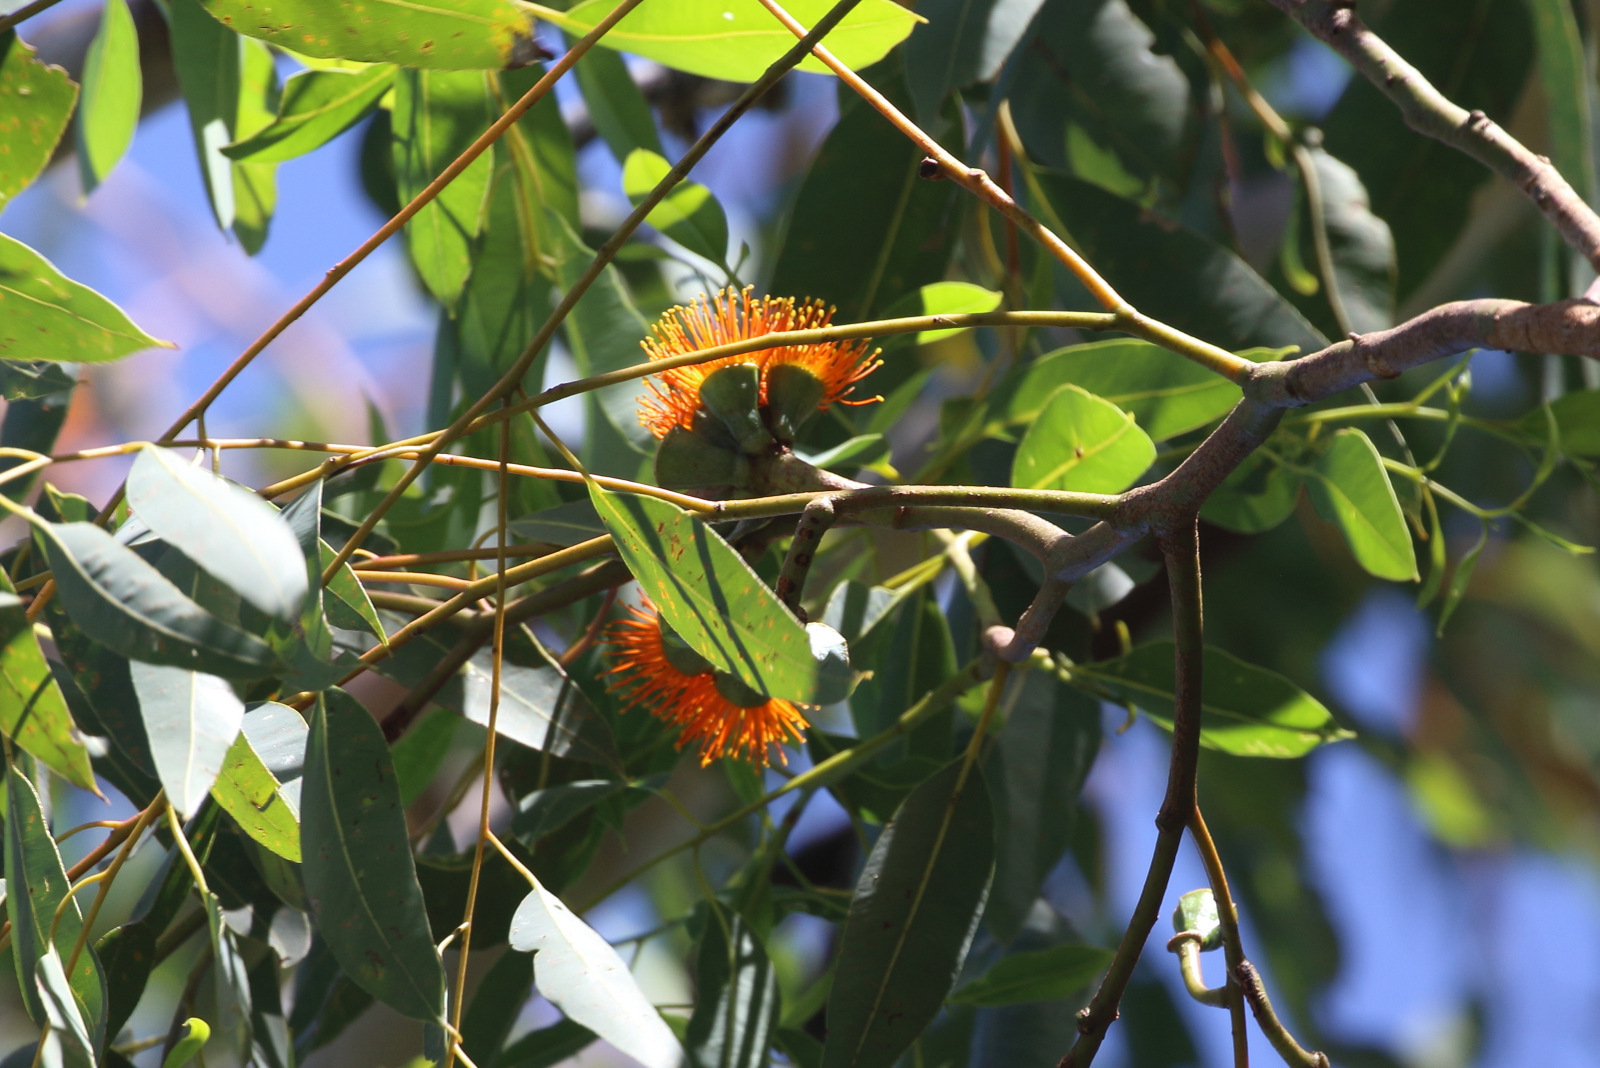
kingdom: Plantae
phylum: Tracheophyta
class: Magnoliopsida
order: Myrtales
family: Myrtaceae
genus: Eucalyptus
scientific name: Eucalyptus miniata
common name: Darwin-woollybutt
